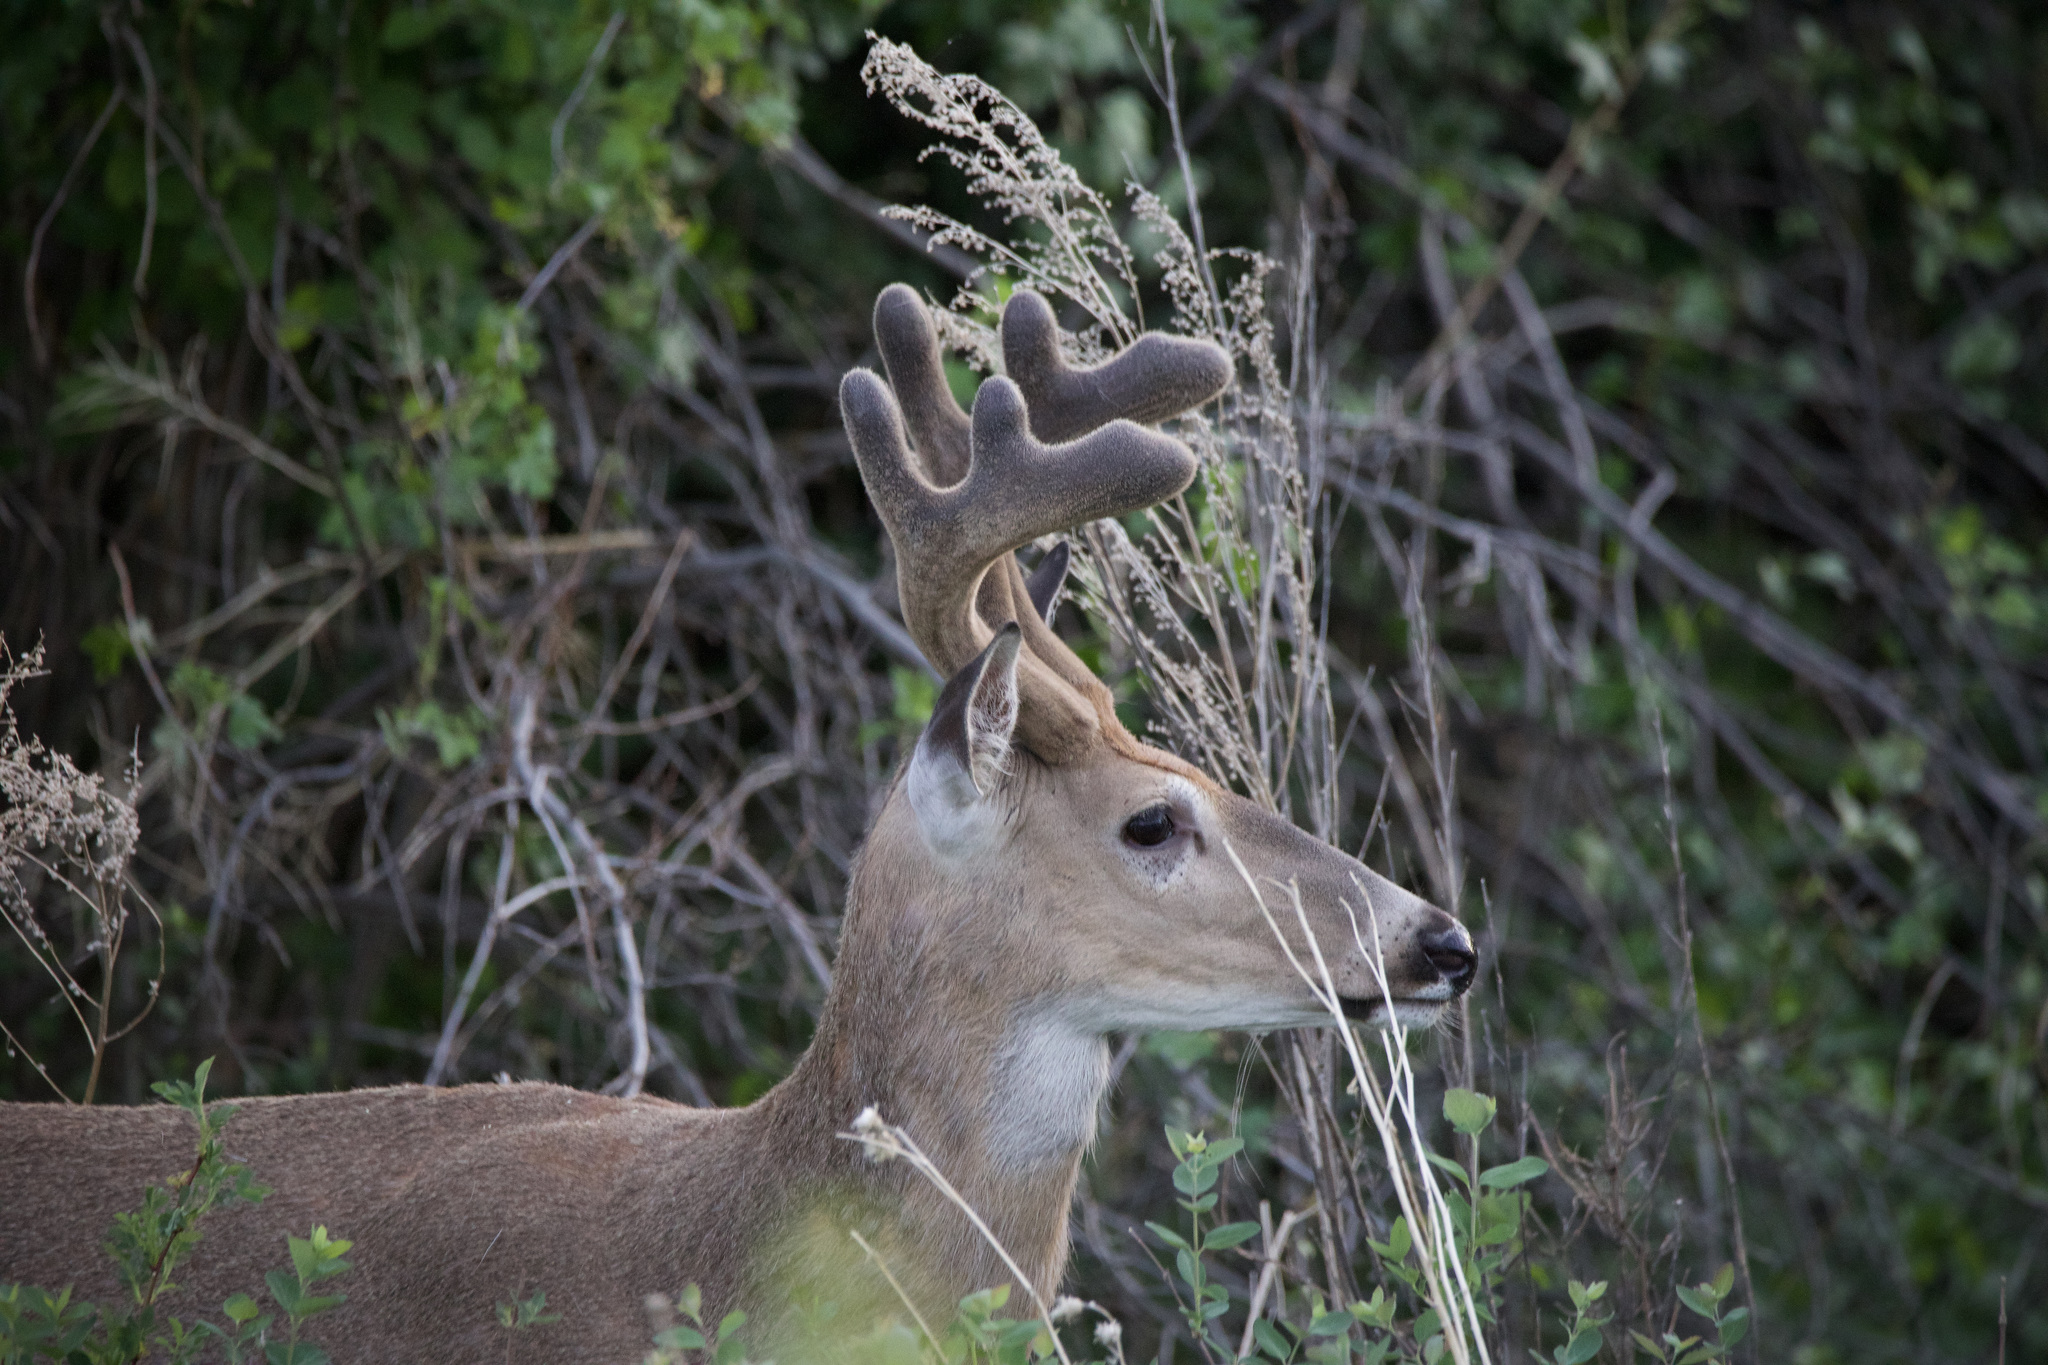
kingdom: Animalia
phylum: Chordata
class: Mammalia
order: Artiodactyla
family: Cervidae
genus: Odocoileus
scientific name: Odocoileus virginianus
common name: White-tailed deer
